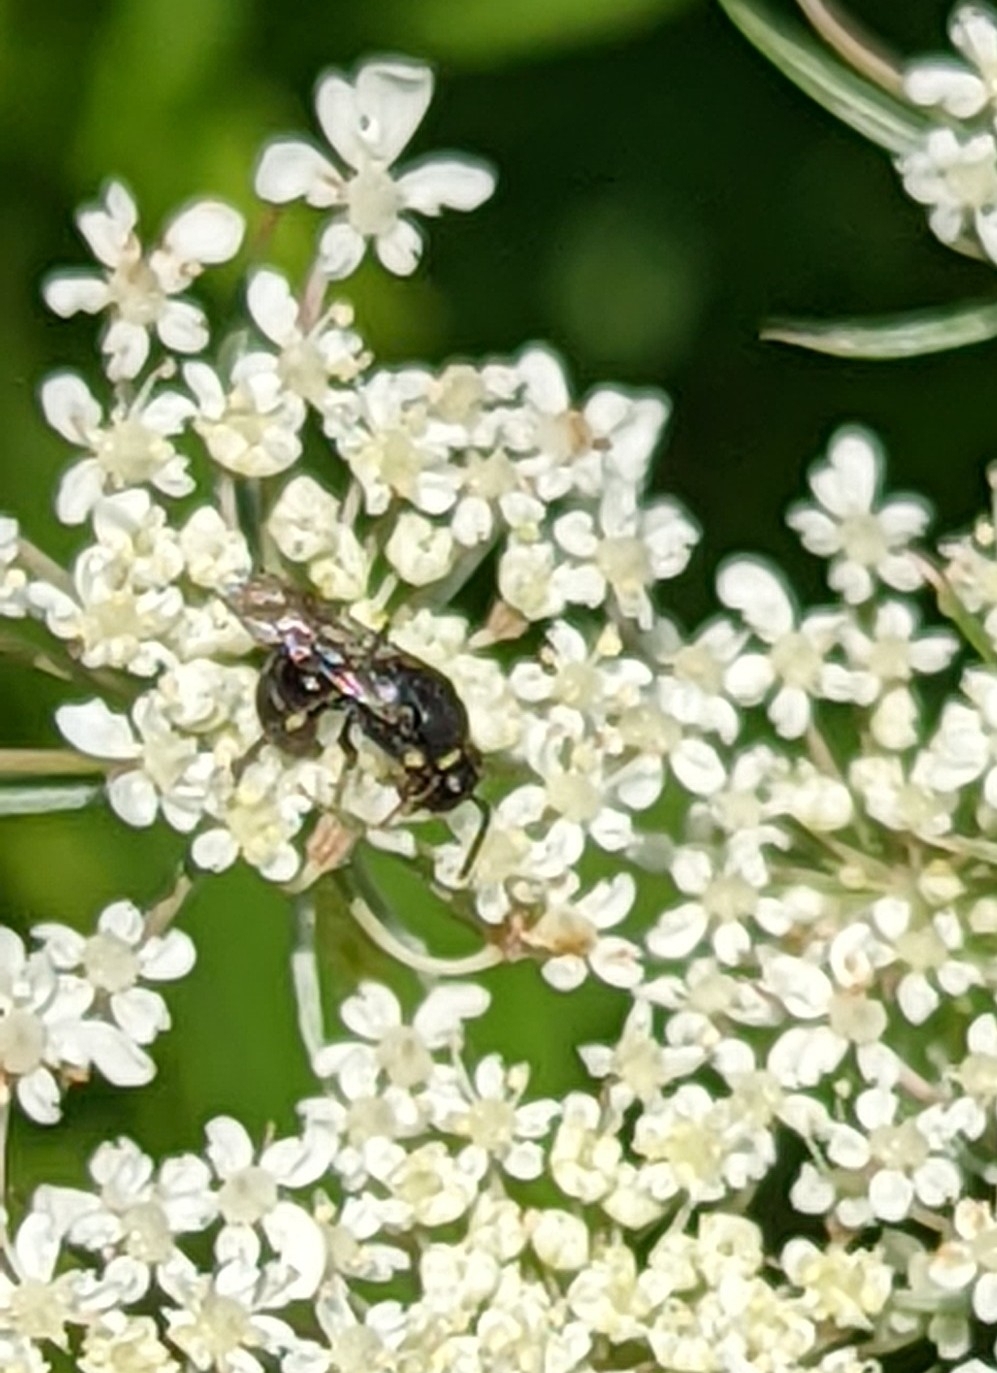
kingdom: Animalia
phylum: Arthropoda
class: Insecta
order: Hymenoptera
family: Colletidae
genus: Hylaeus
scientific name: Hylaeus
